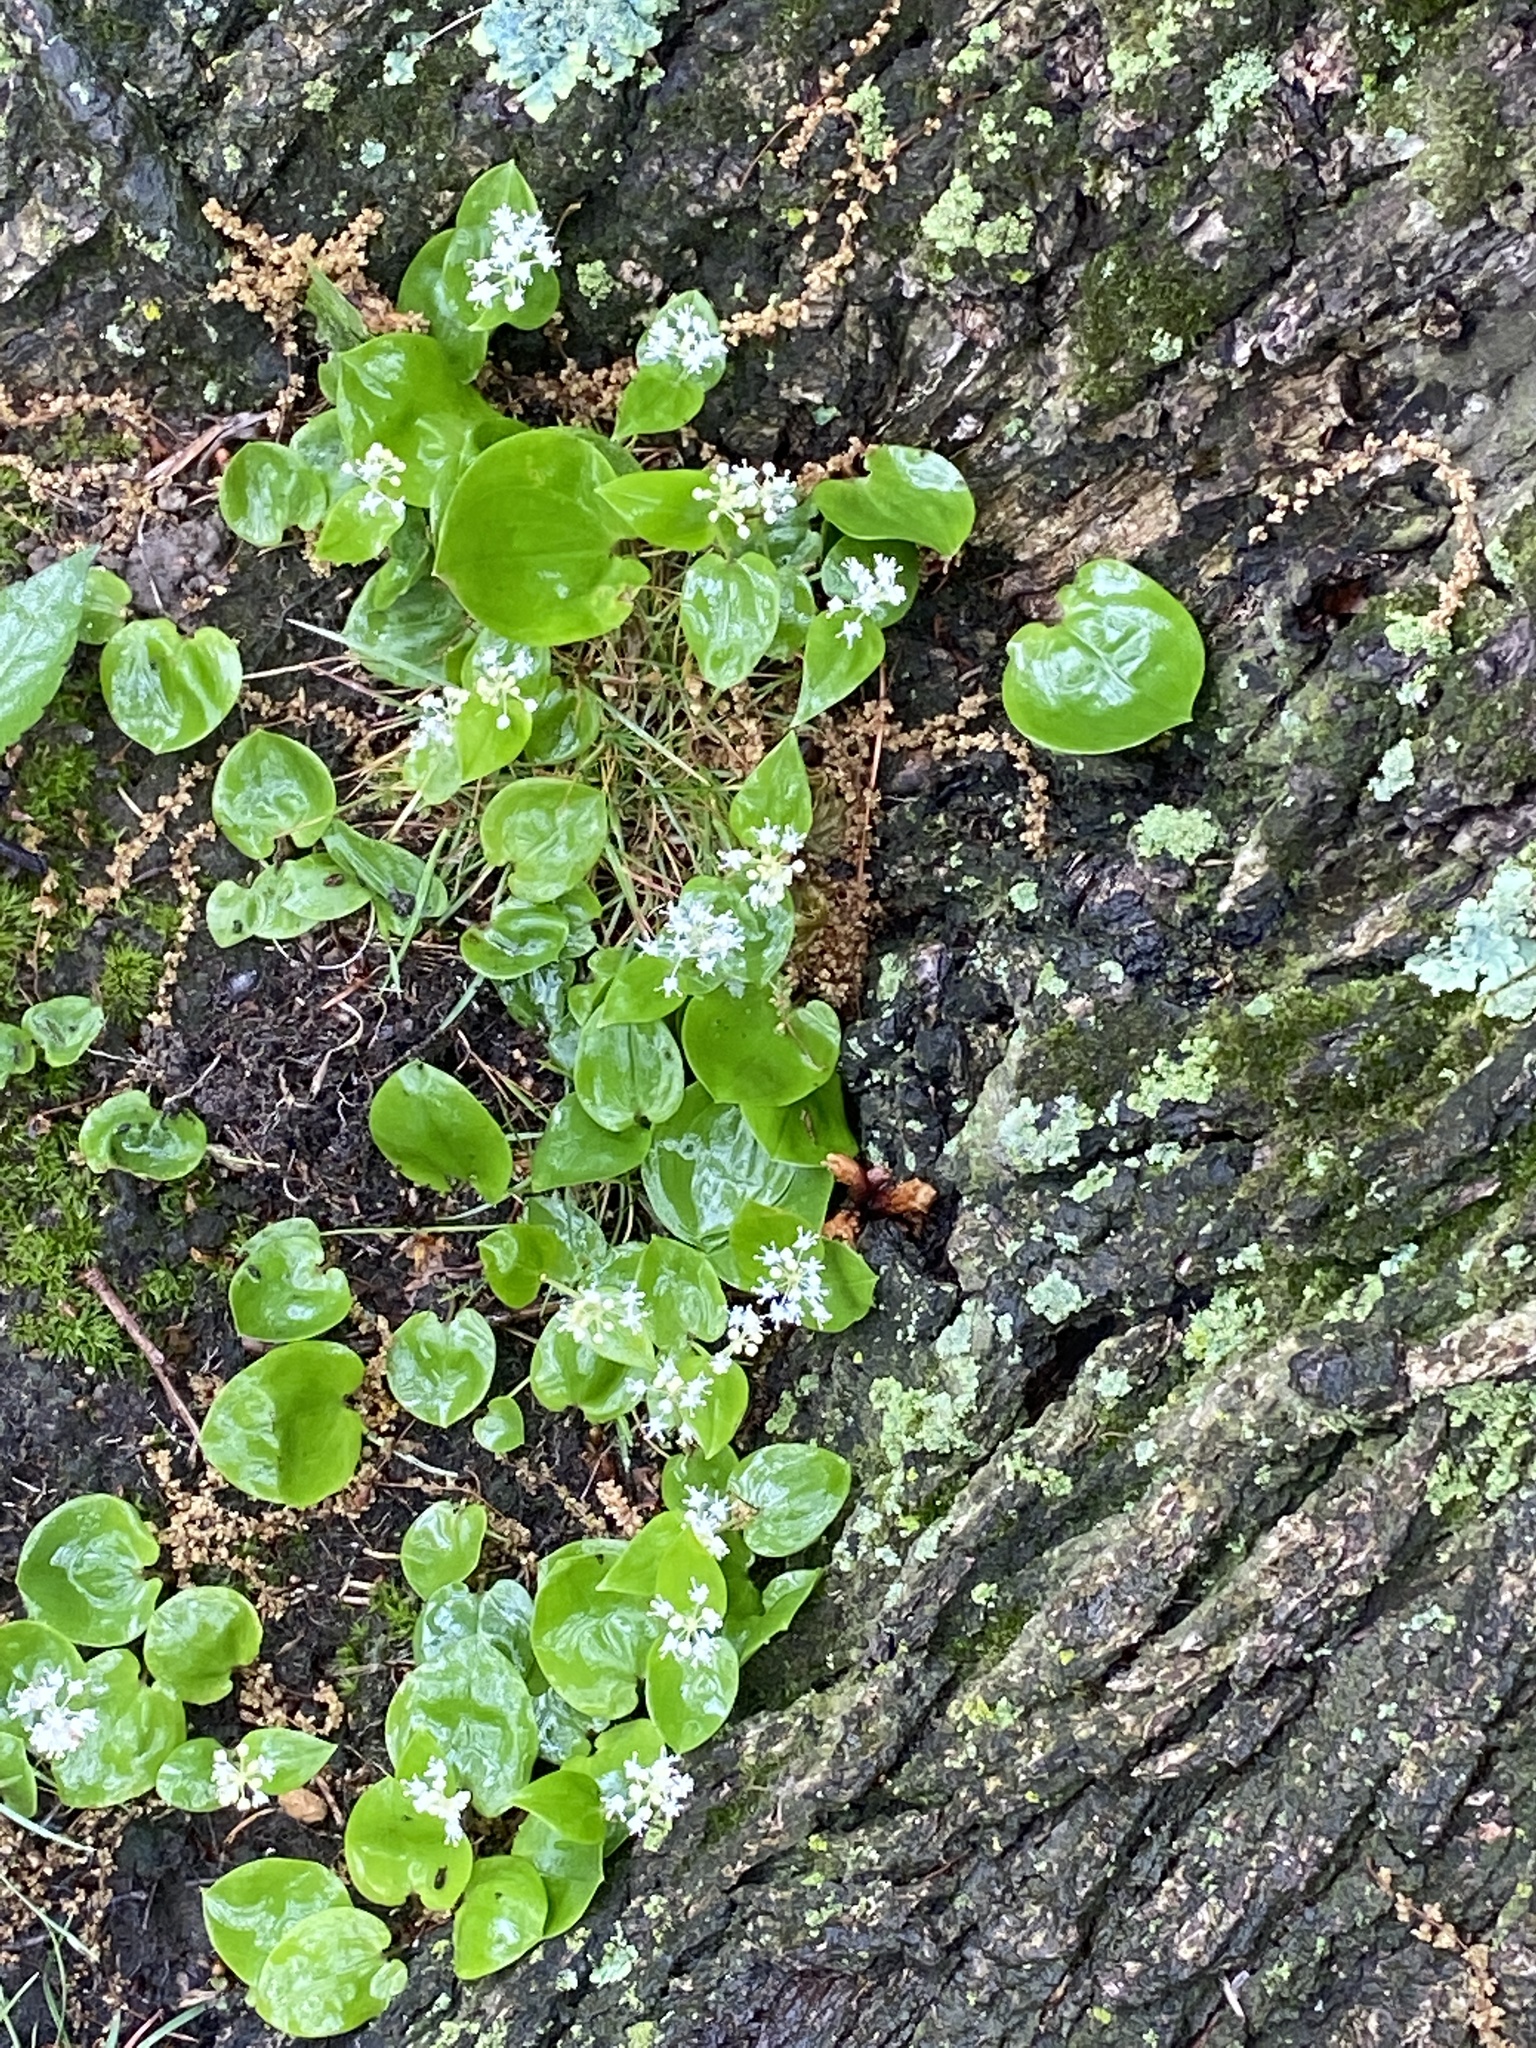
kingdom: Plantae
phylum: Tracheophyta
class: Liliopsida
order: Asparagales
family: Asparagaceae
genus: Maianthemum
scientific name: Maianthemum canadense
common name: False lily-of-the-valley
